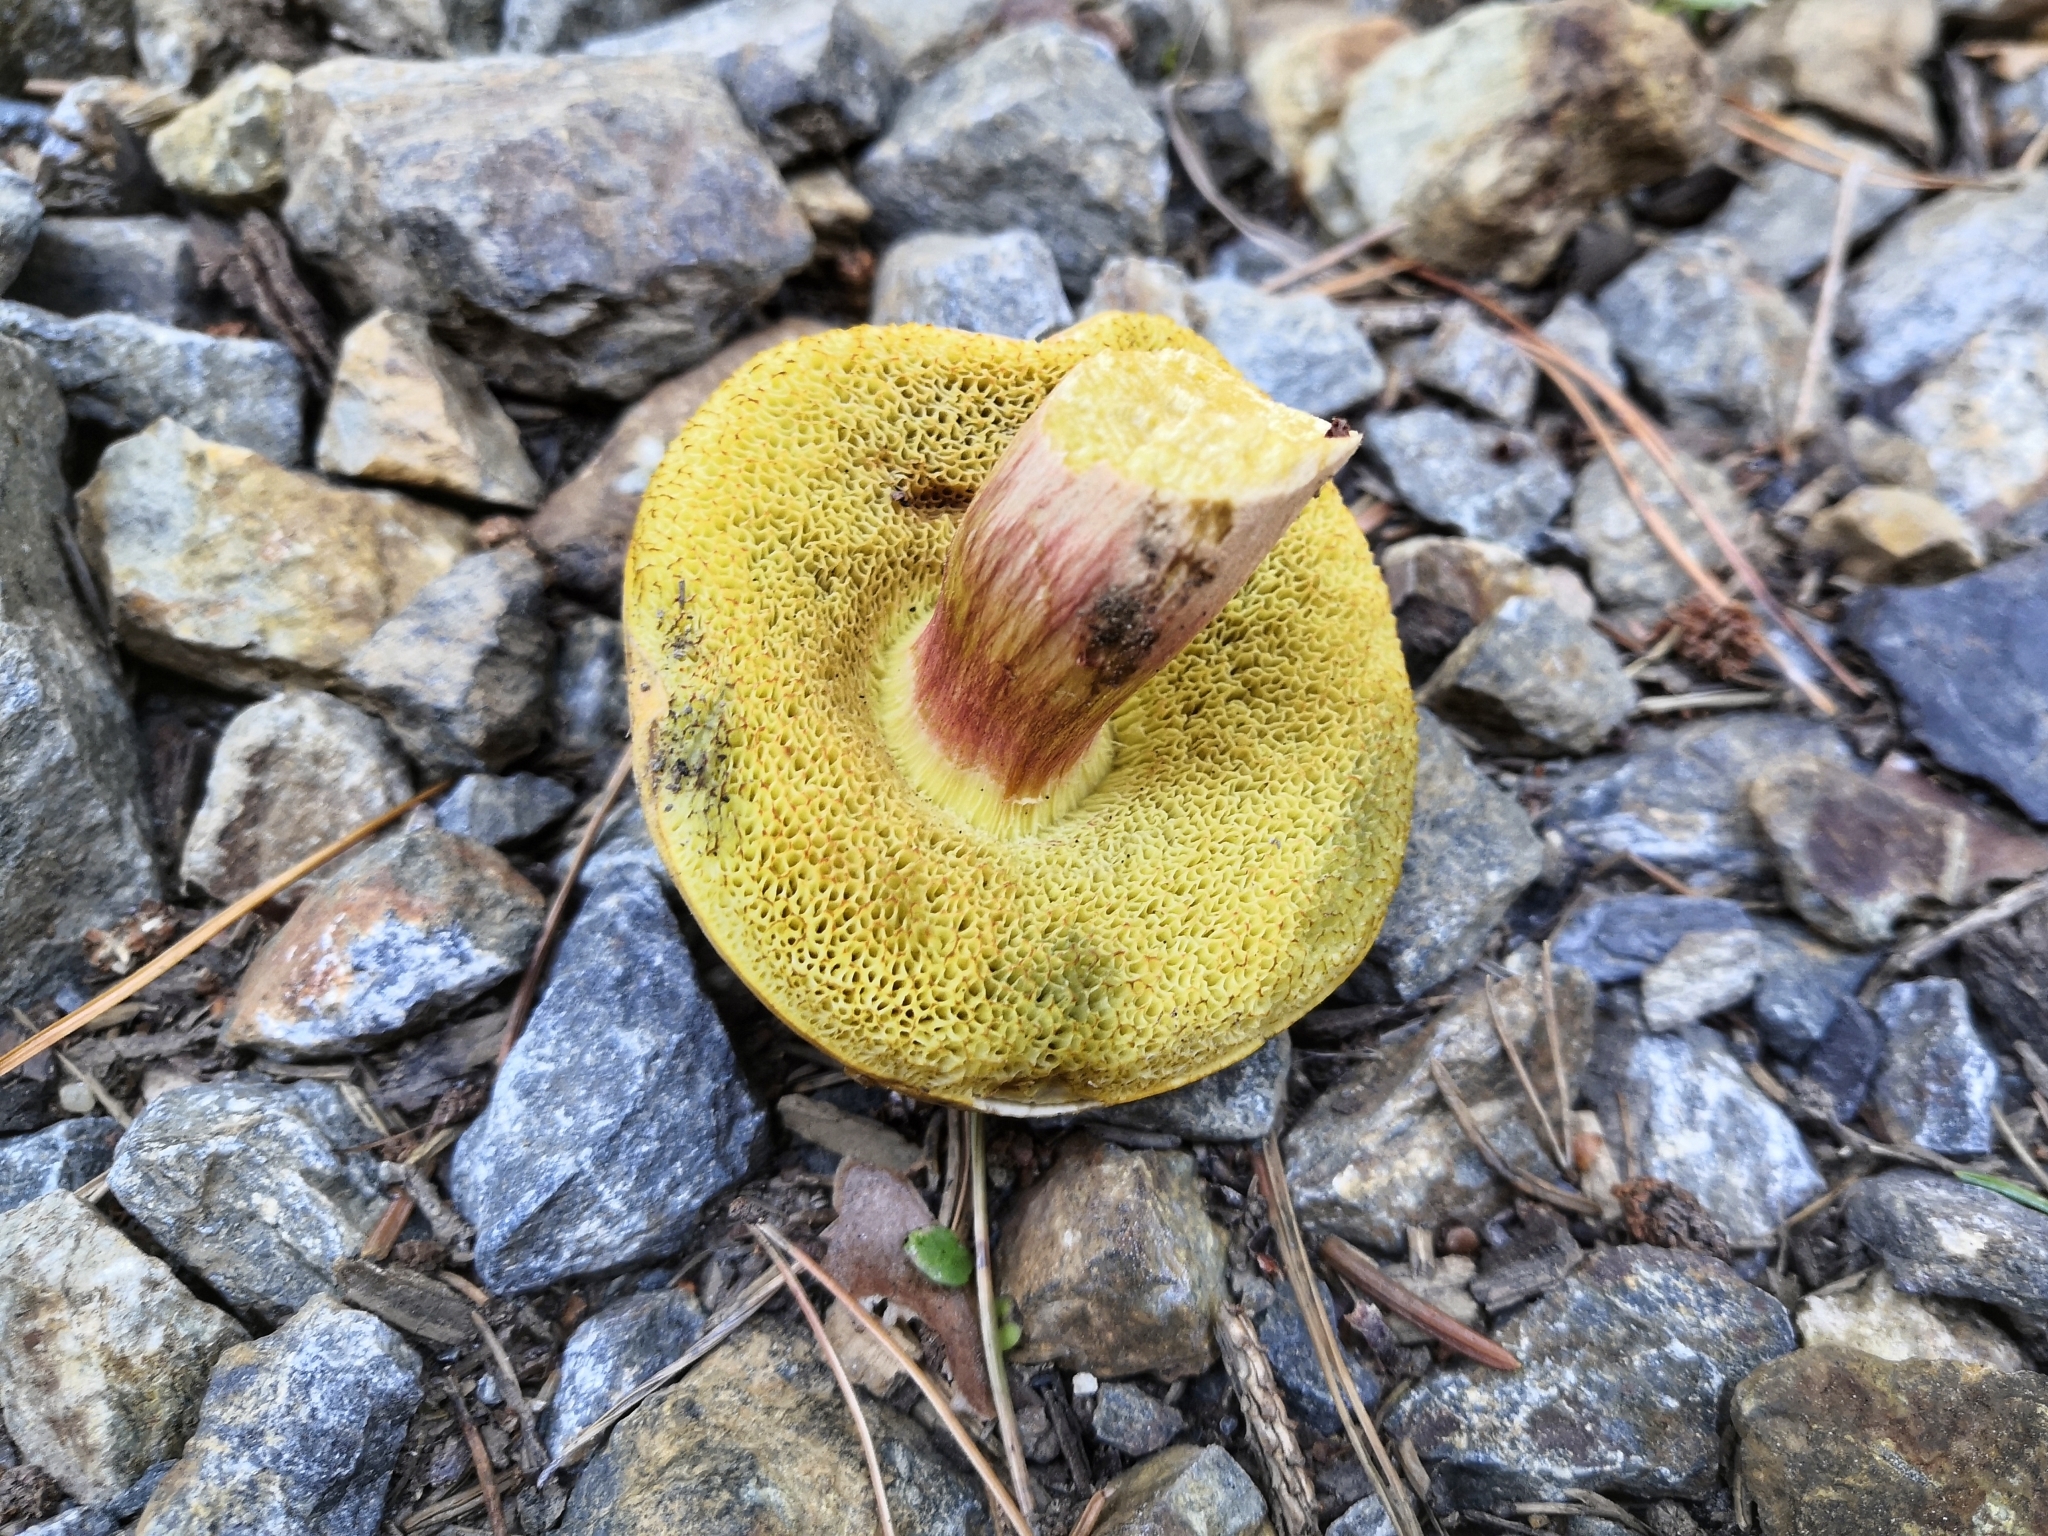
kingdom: Fungi
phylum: Basidiomycota
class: Agaricomycetes
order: Boletales
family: Boletaceae
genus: Xerocomus
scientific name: Xerocomus subtomentosus
